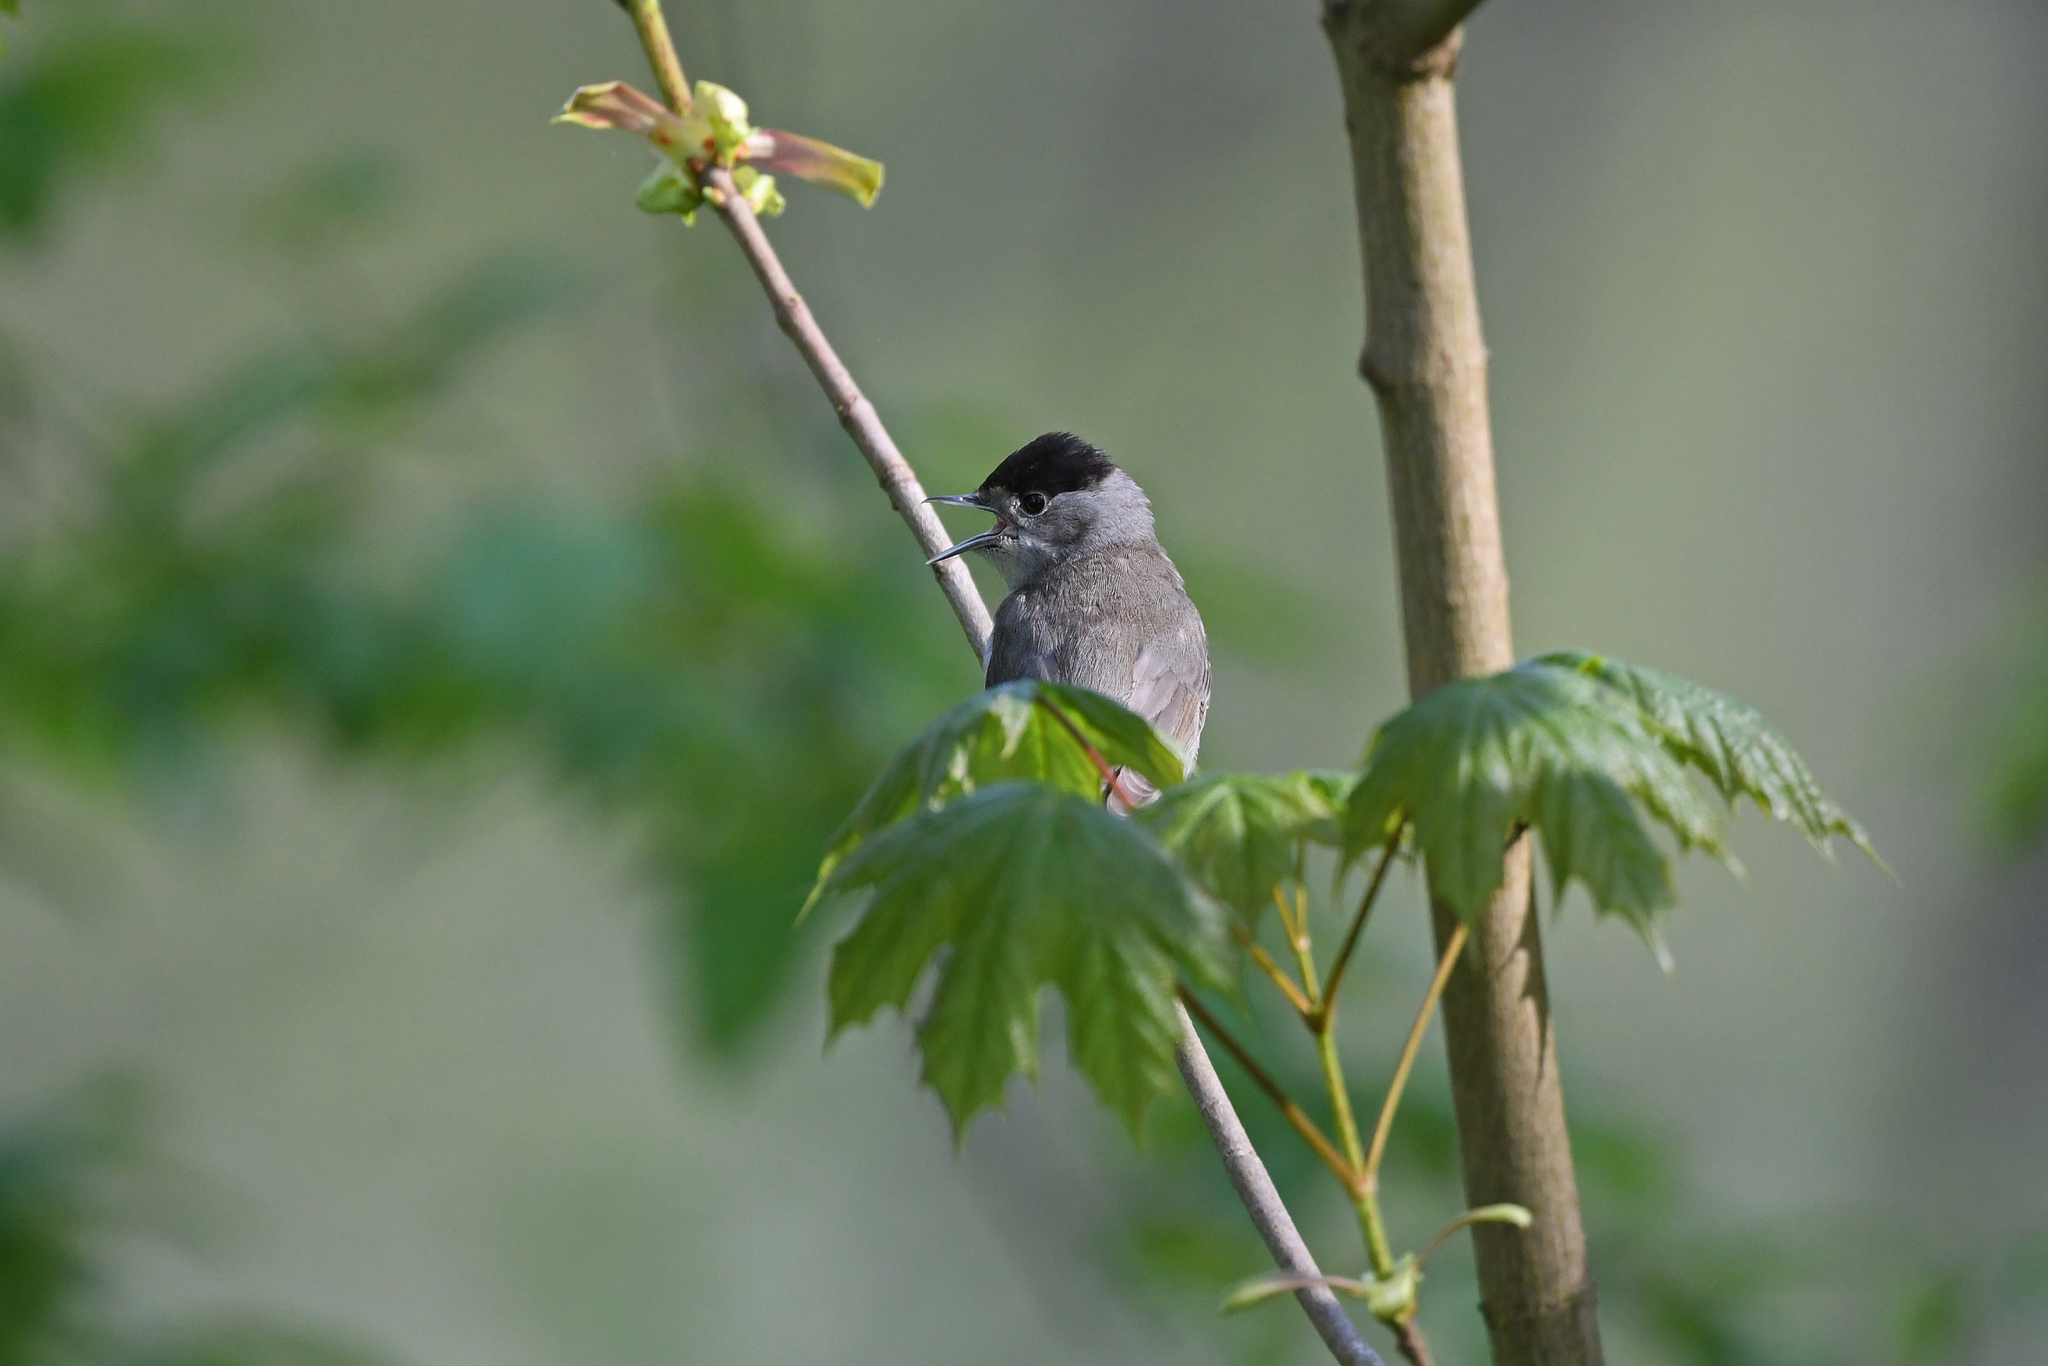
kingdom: Animalia
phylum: Chordata
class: Aves
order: Passeriformes
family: Sylviidae
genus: Sylvia
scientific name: Sylvia atricapilla
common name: Eurasian blackcap
